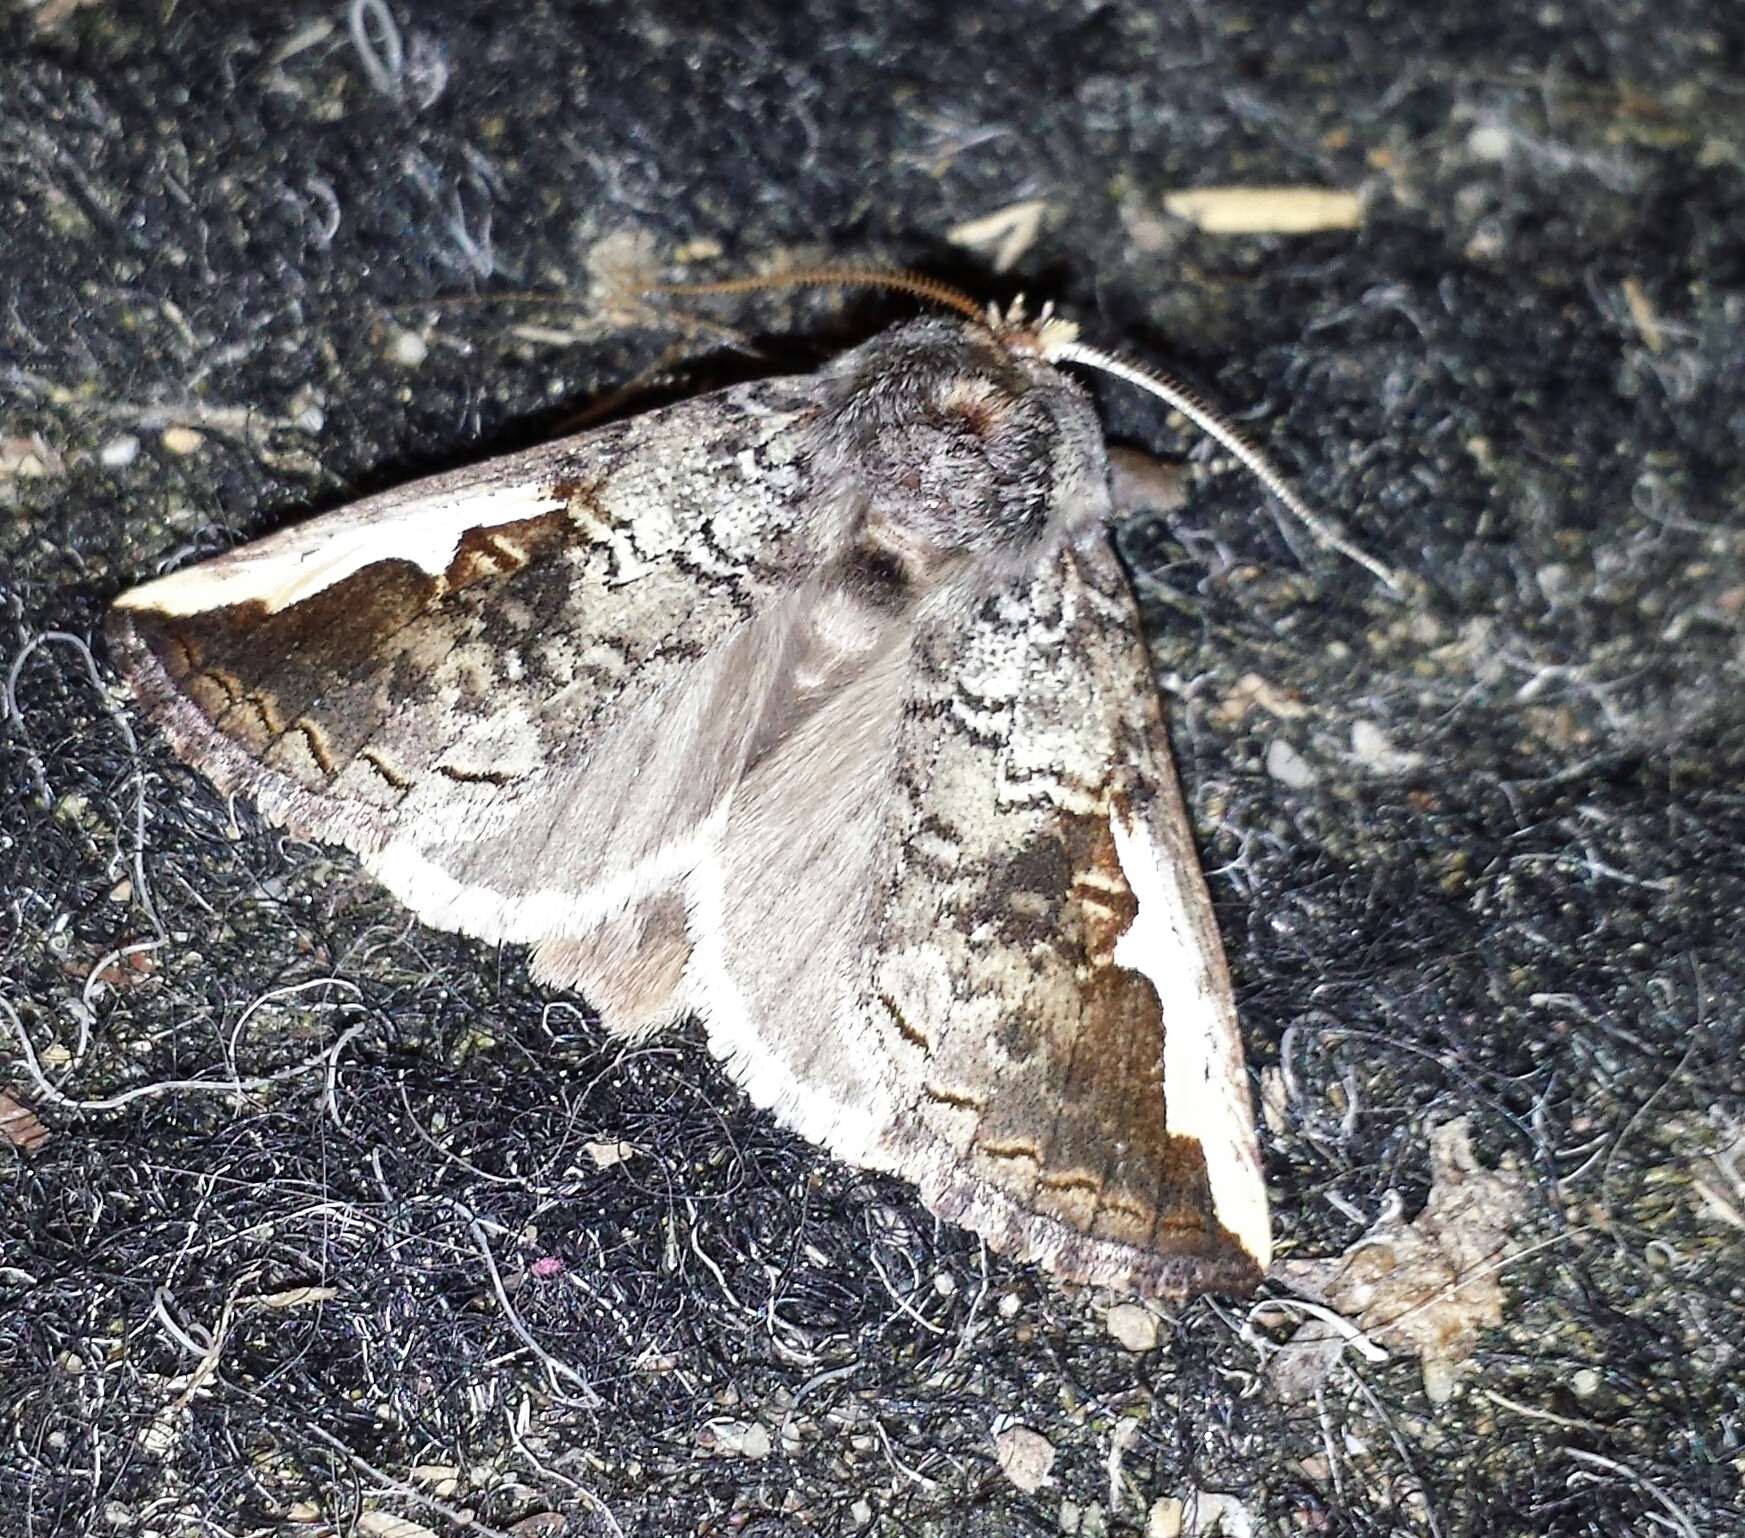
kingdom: Animalia
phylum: Arthropoda
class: Insecta
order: Lepidoptera
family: Notodontidae
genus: Symmerista
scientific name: Symmerista
